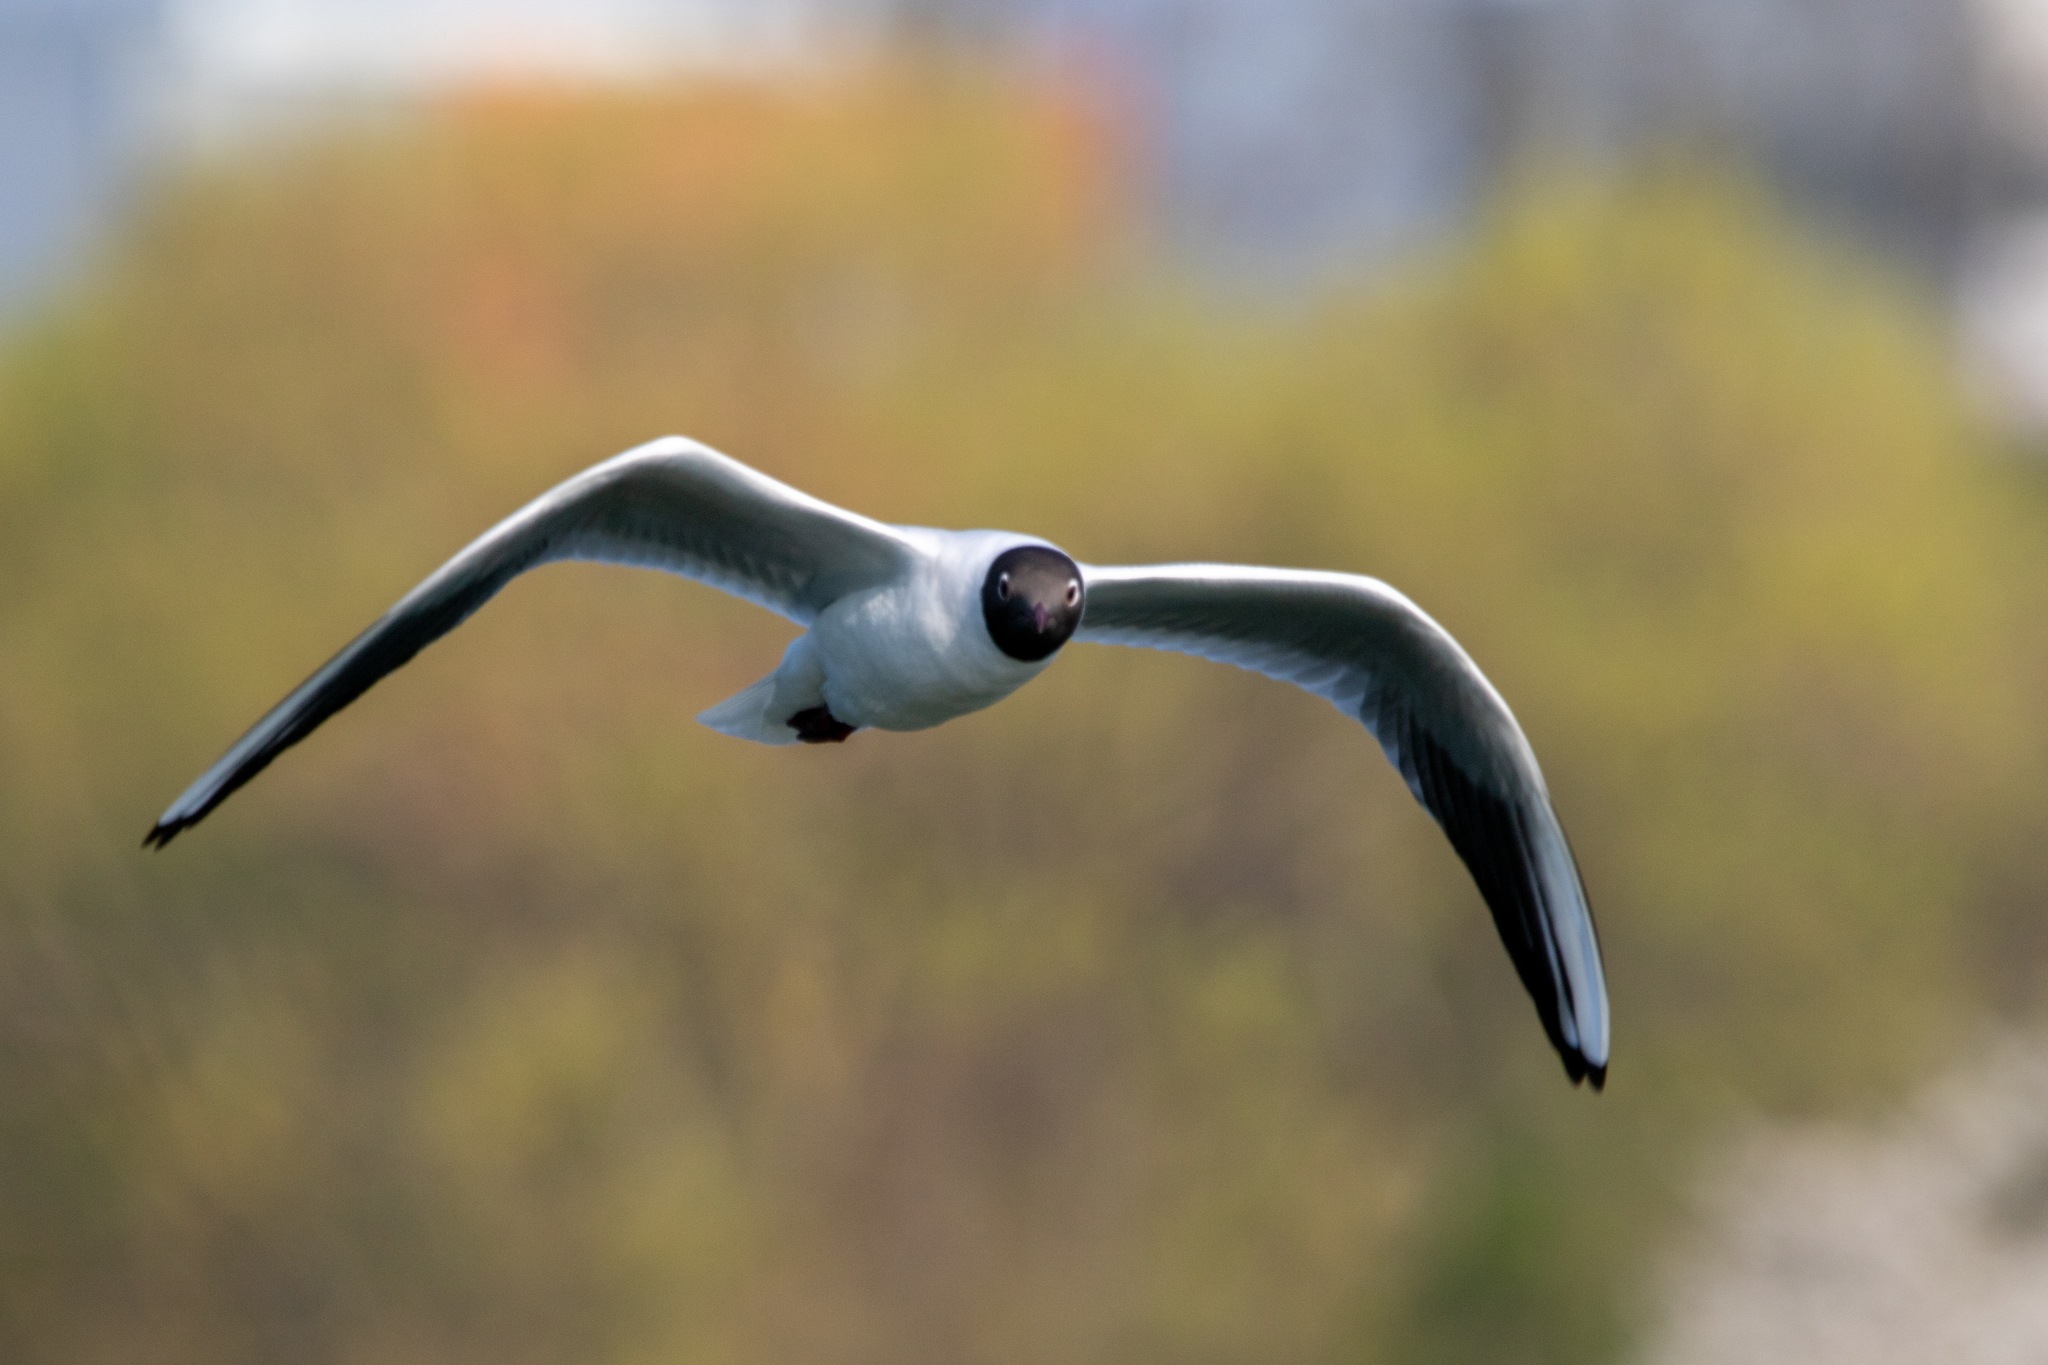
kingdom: Animalia
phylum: Chordata
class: Aves
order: Charadriiformes
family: Laridae
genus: Chroicocephalus
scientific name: Chroicocephalus ridibundus
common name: Black-headed gull
